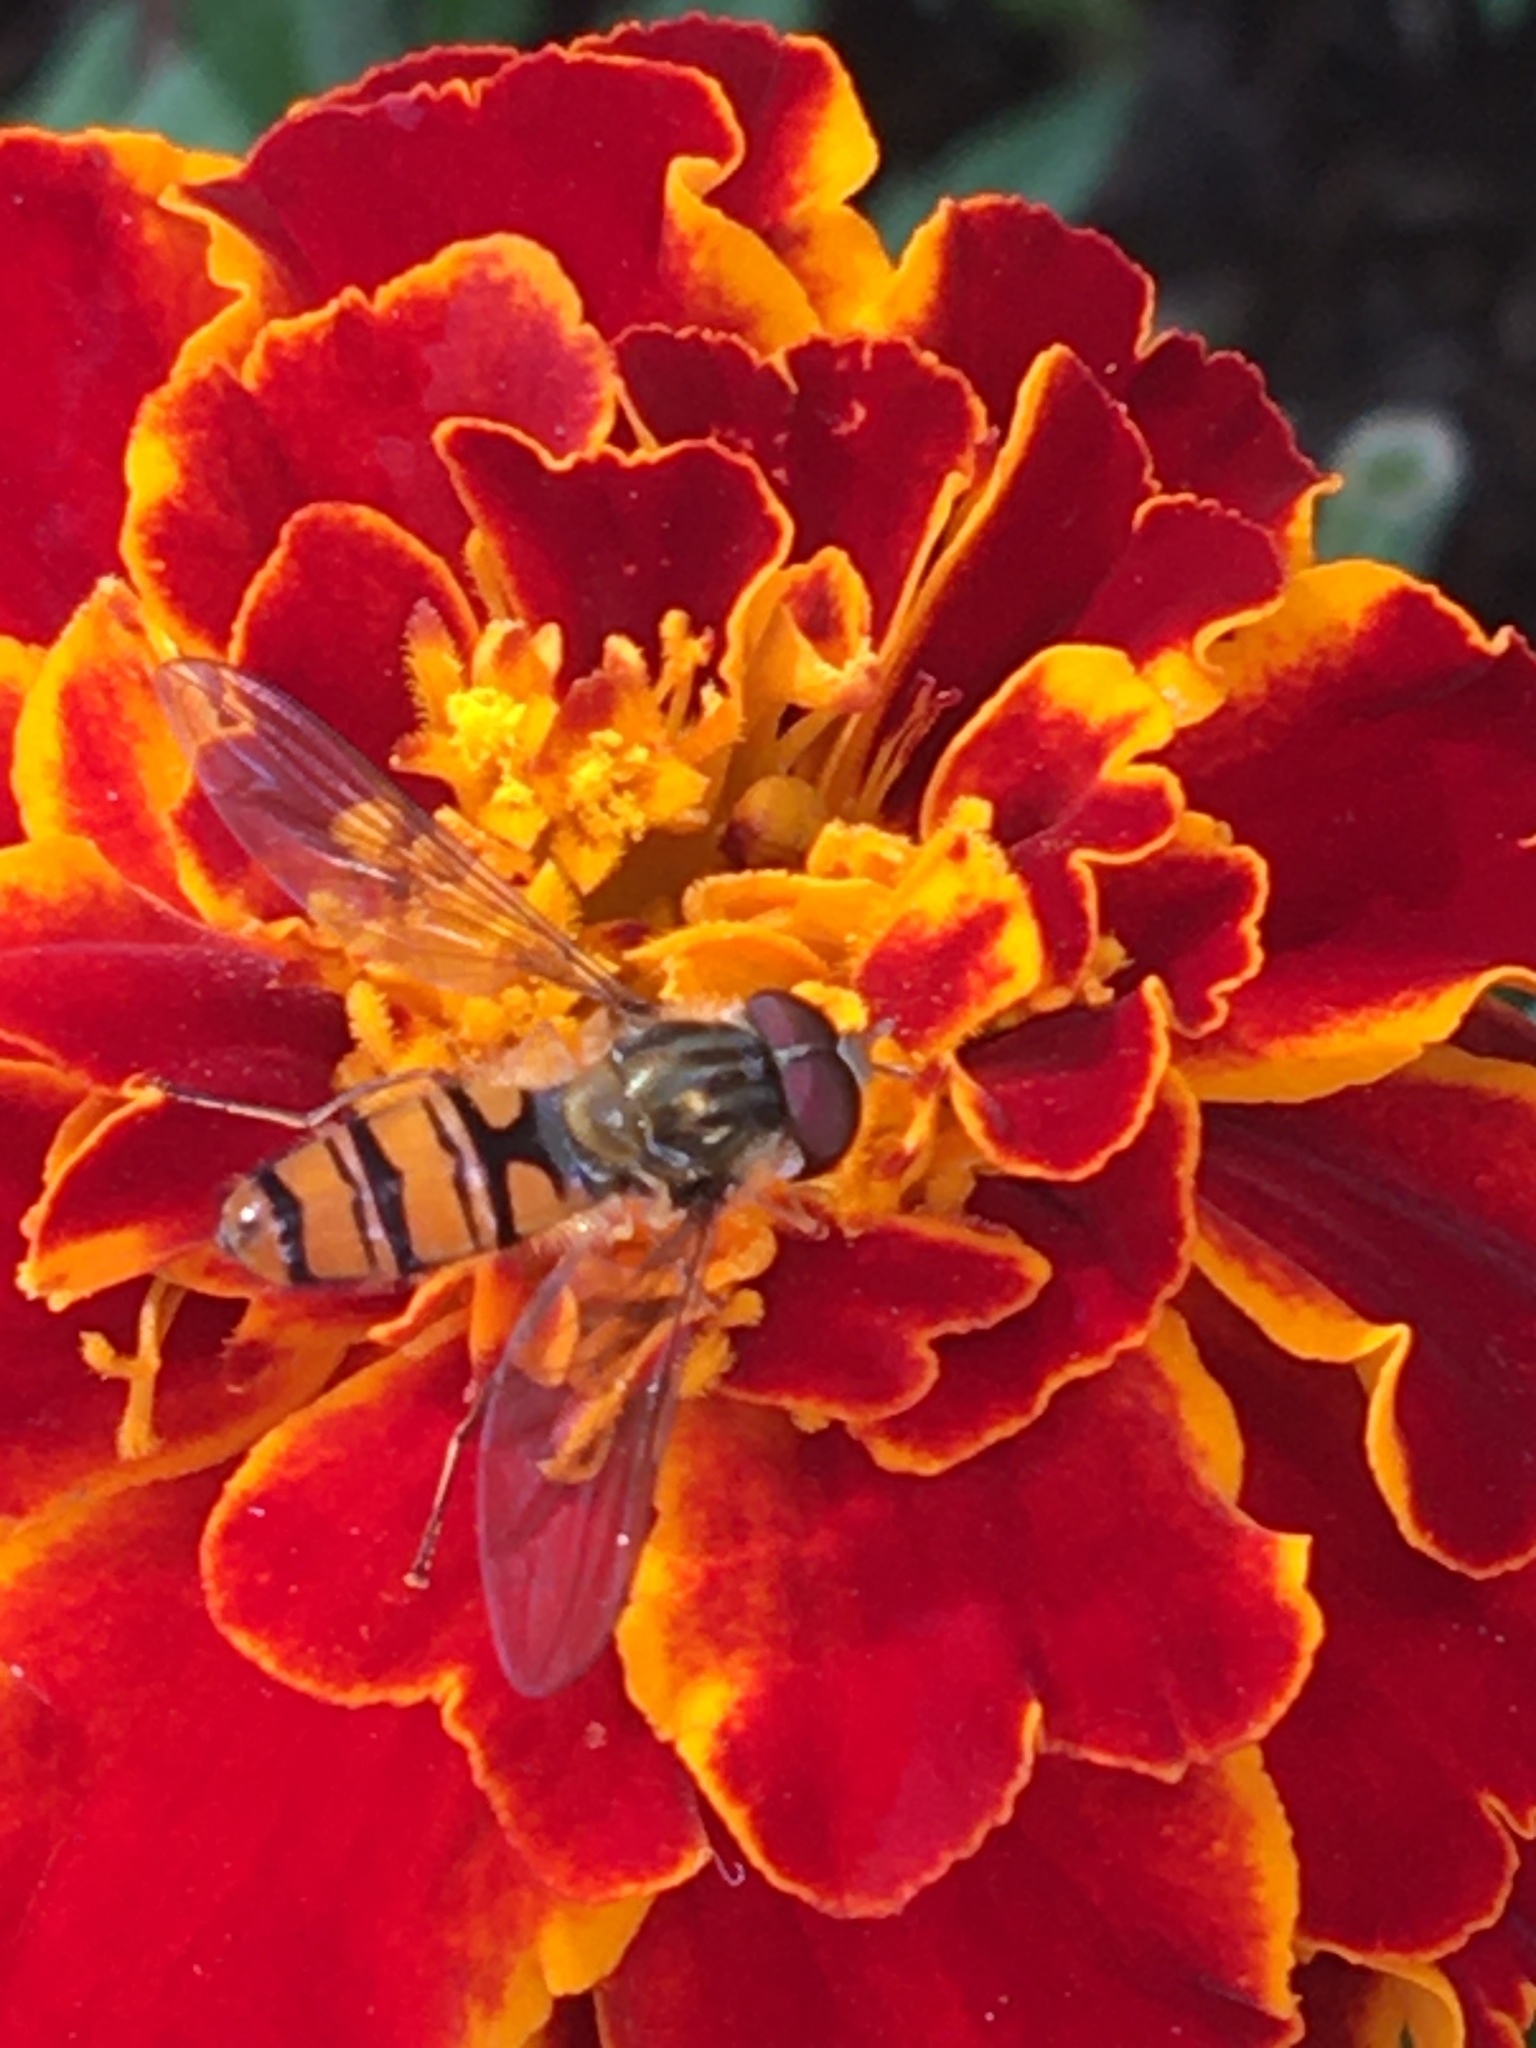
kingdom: Animalia
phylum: Arthropoda
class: Insecta
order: Diptera
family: Syrphidae
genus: Episyrphus
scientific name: Episyrphus balteatus
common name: Marmalade hoverfly
